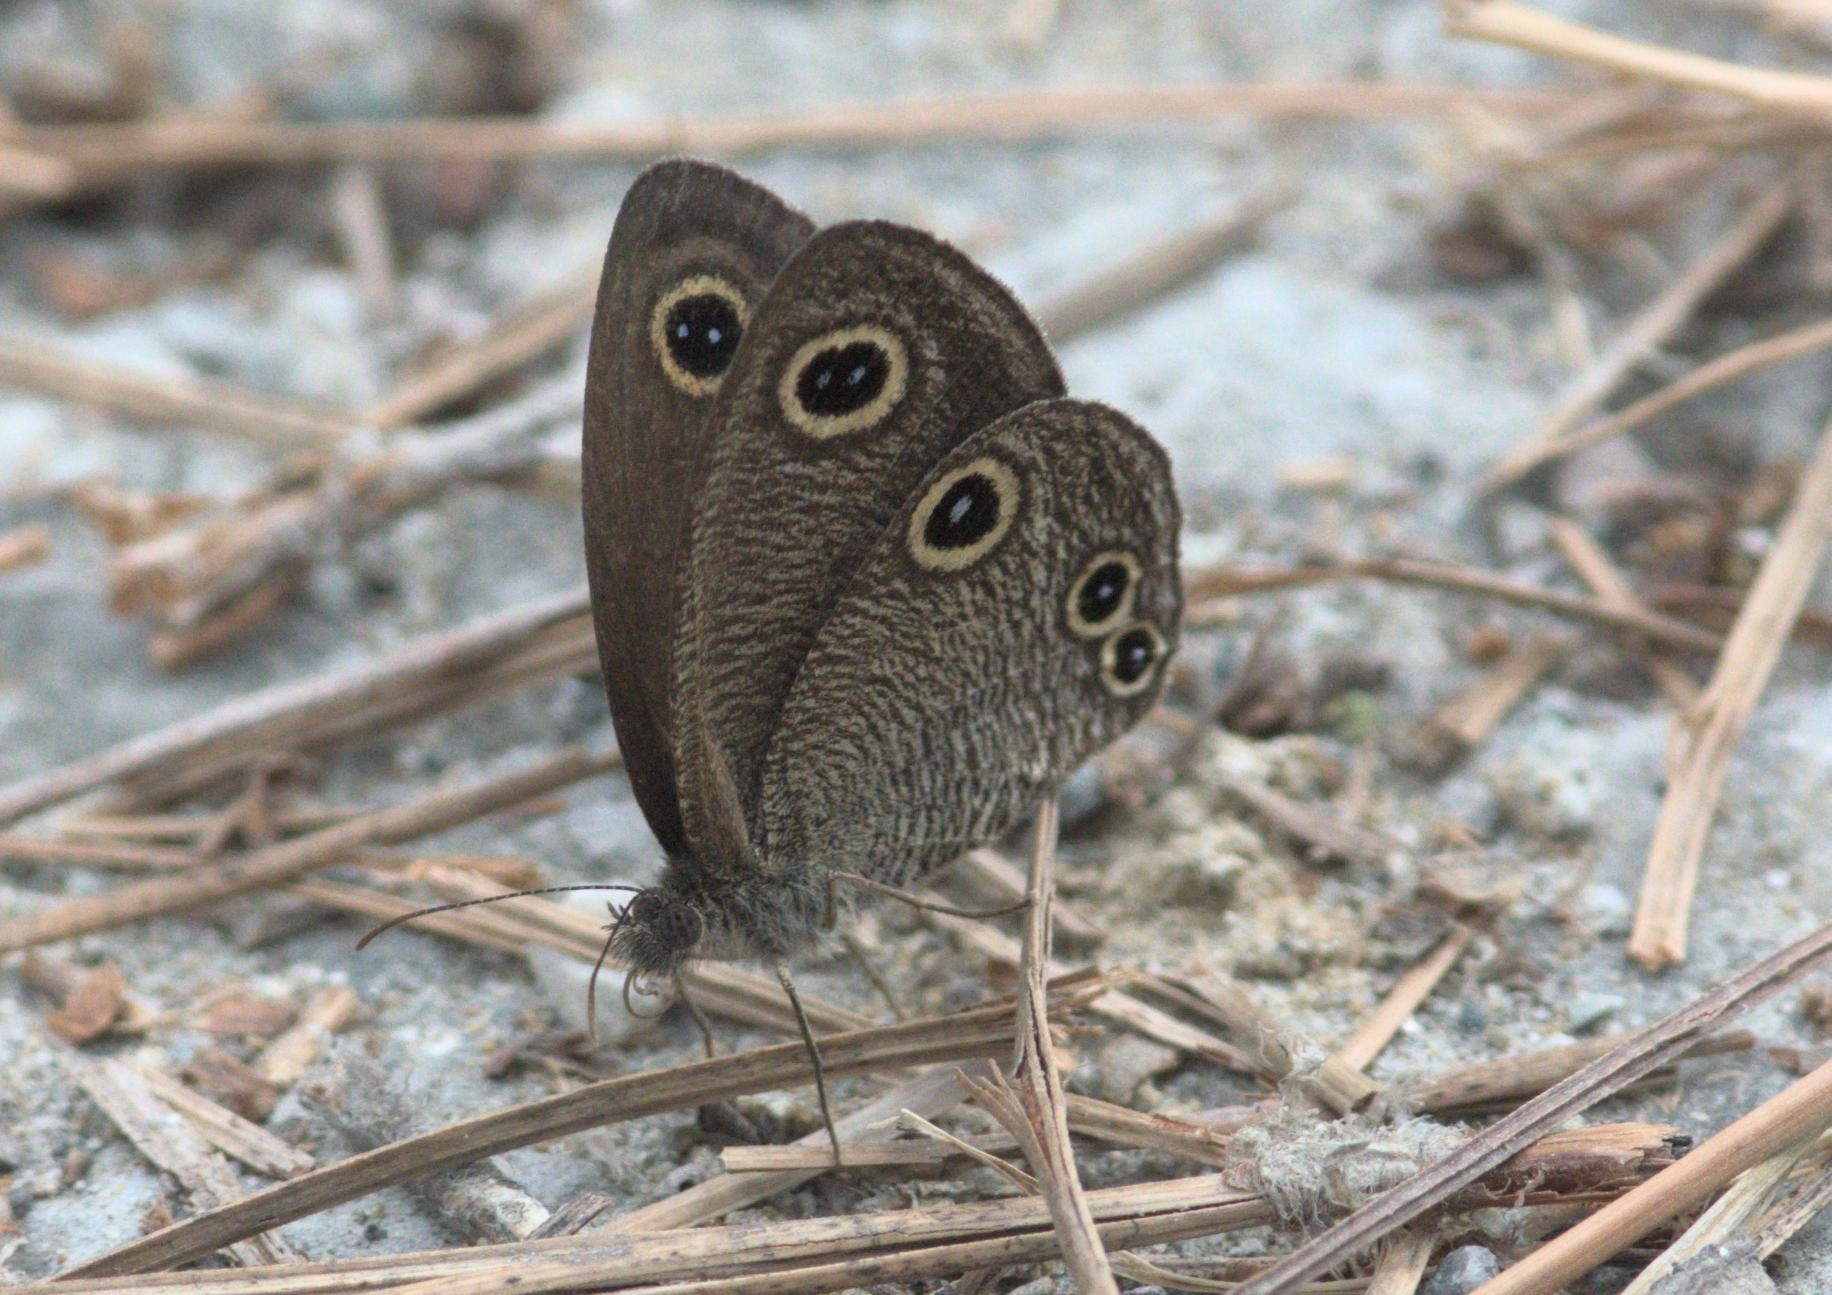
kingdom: Animalia
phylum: Arthropoda
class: Insecta
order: Lepidoptera
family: Nymphalidae
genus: Ypthima
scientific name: Ypthima nareda
